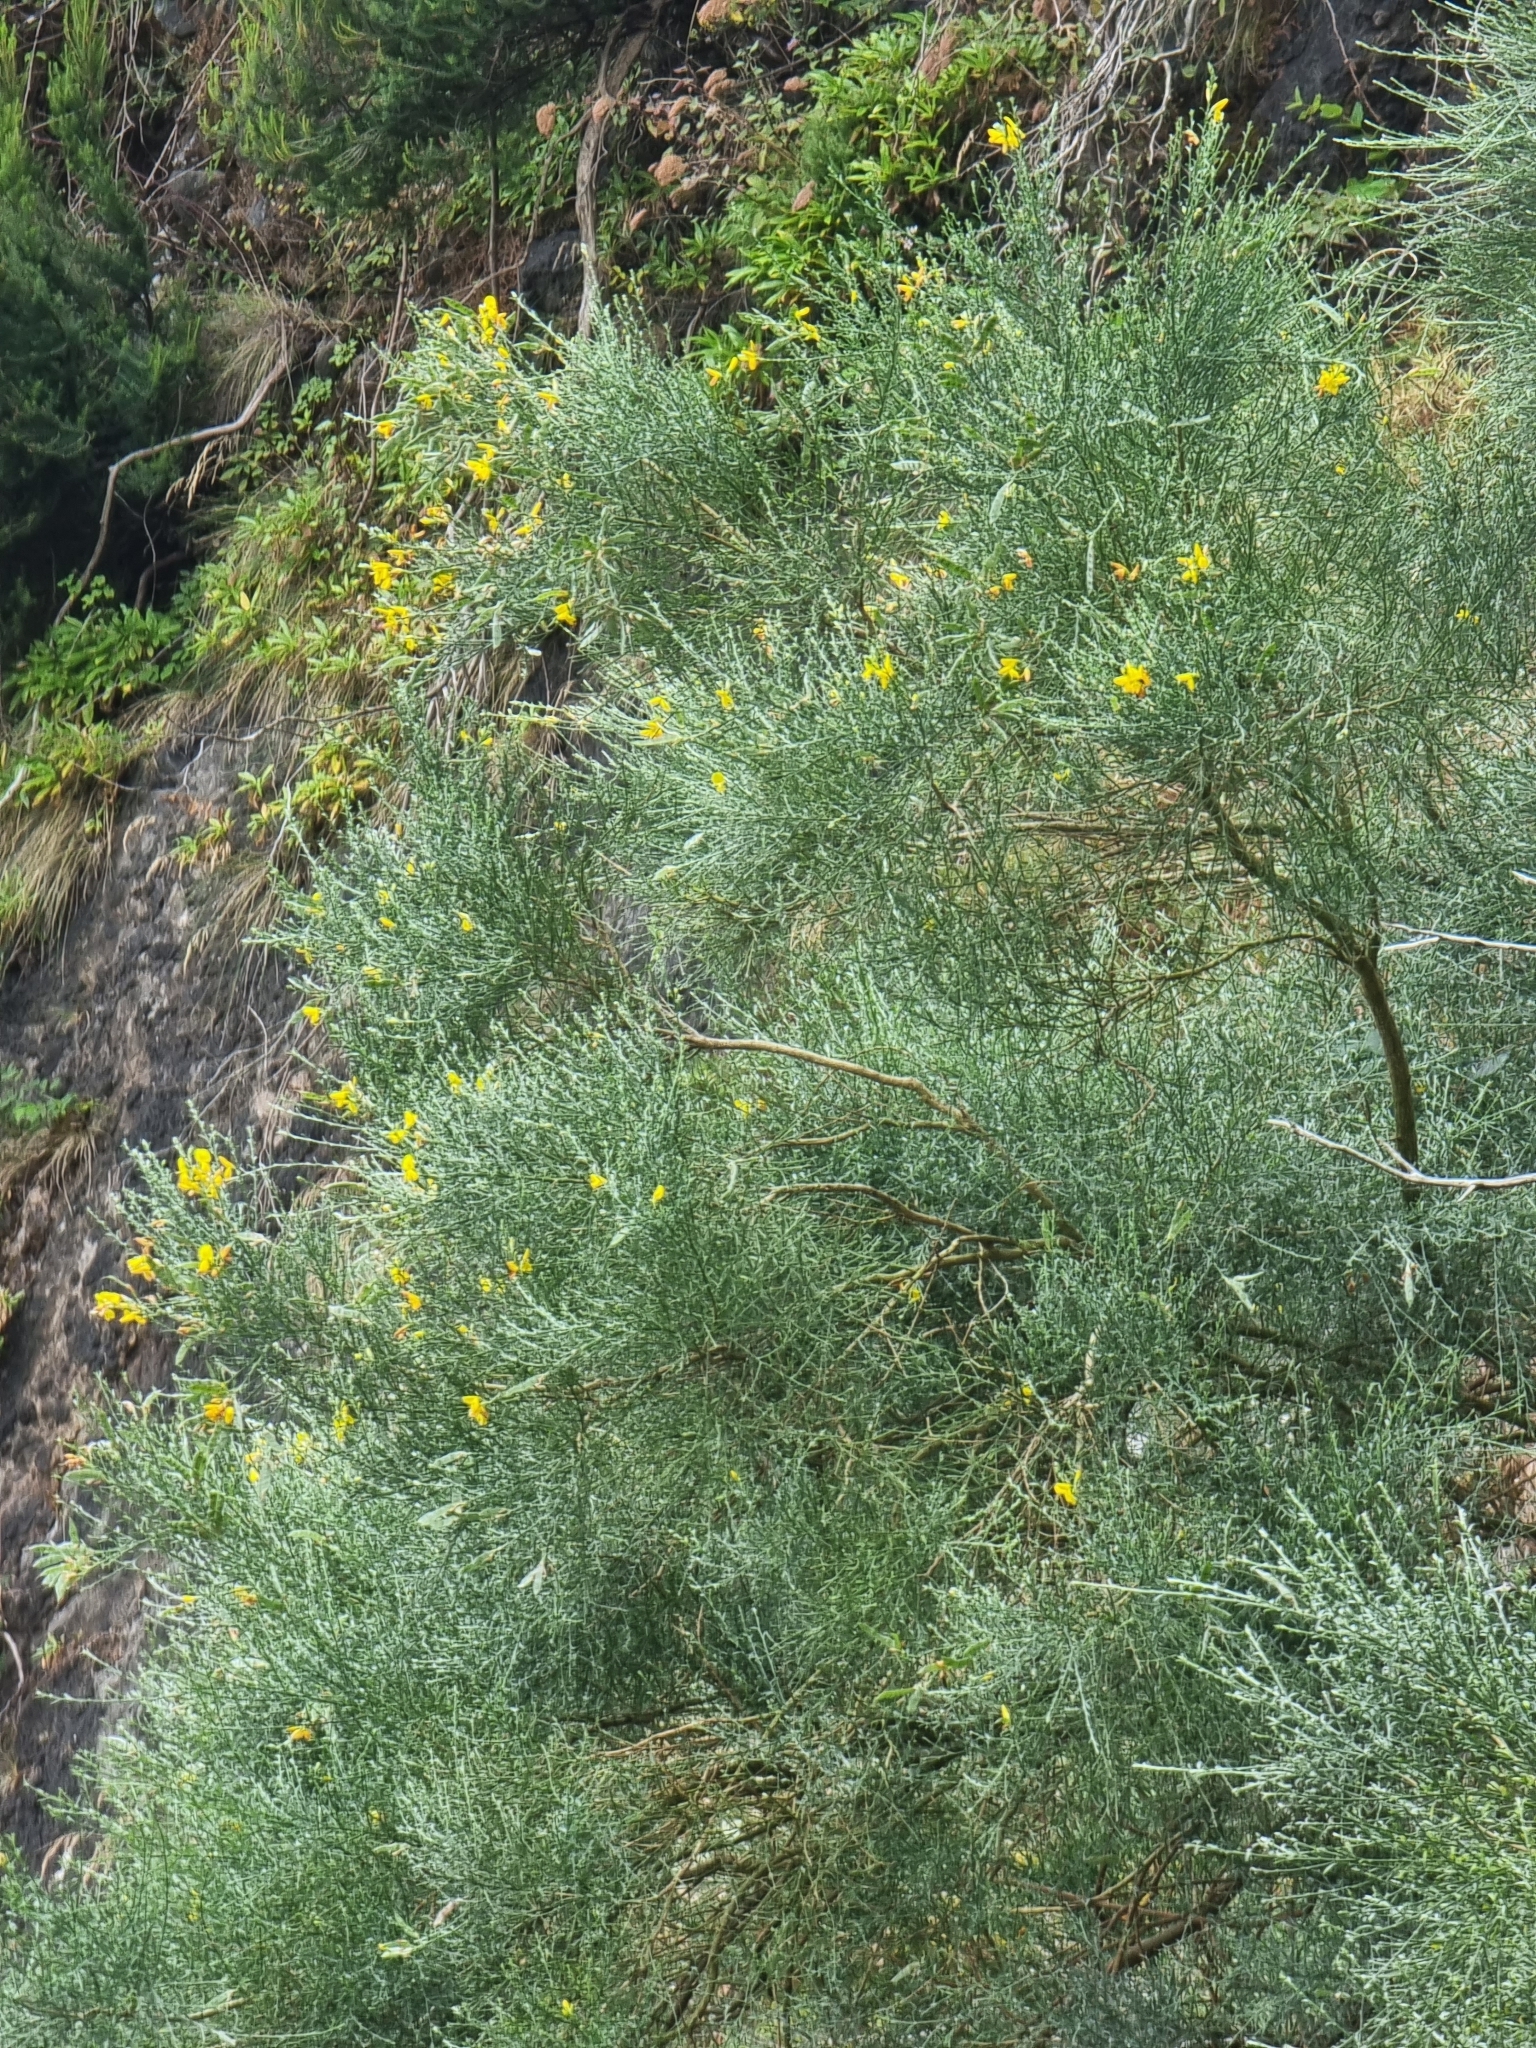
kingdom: Plantae
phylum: Tracheophyta
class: Magnoliopsida
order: Fabales
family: Fabaceae
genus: Genista
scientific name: Genista tenera
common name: Madeira broom
